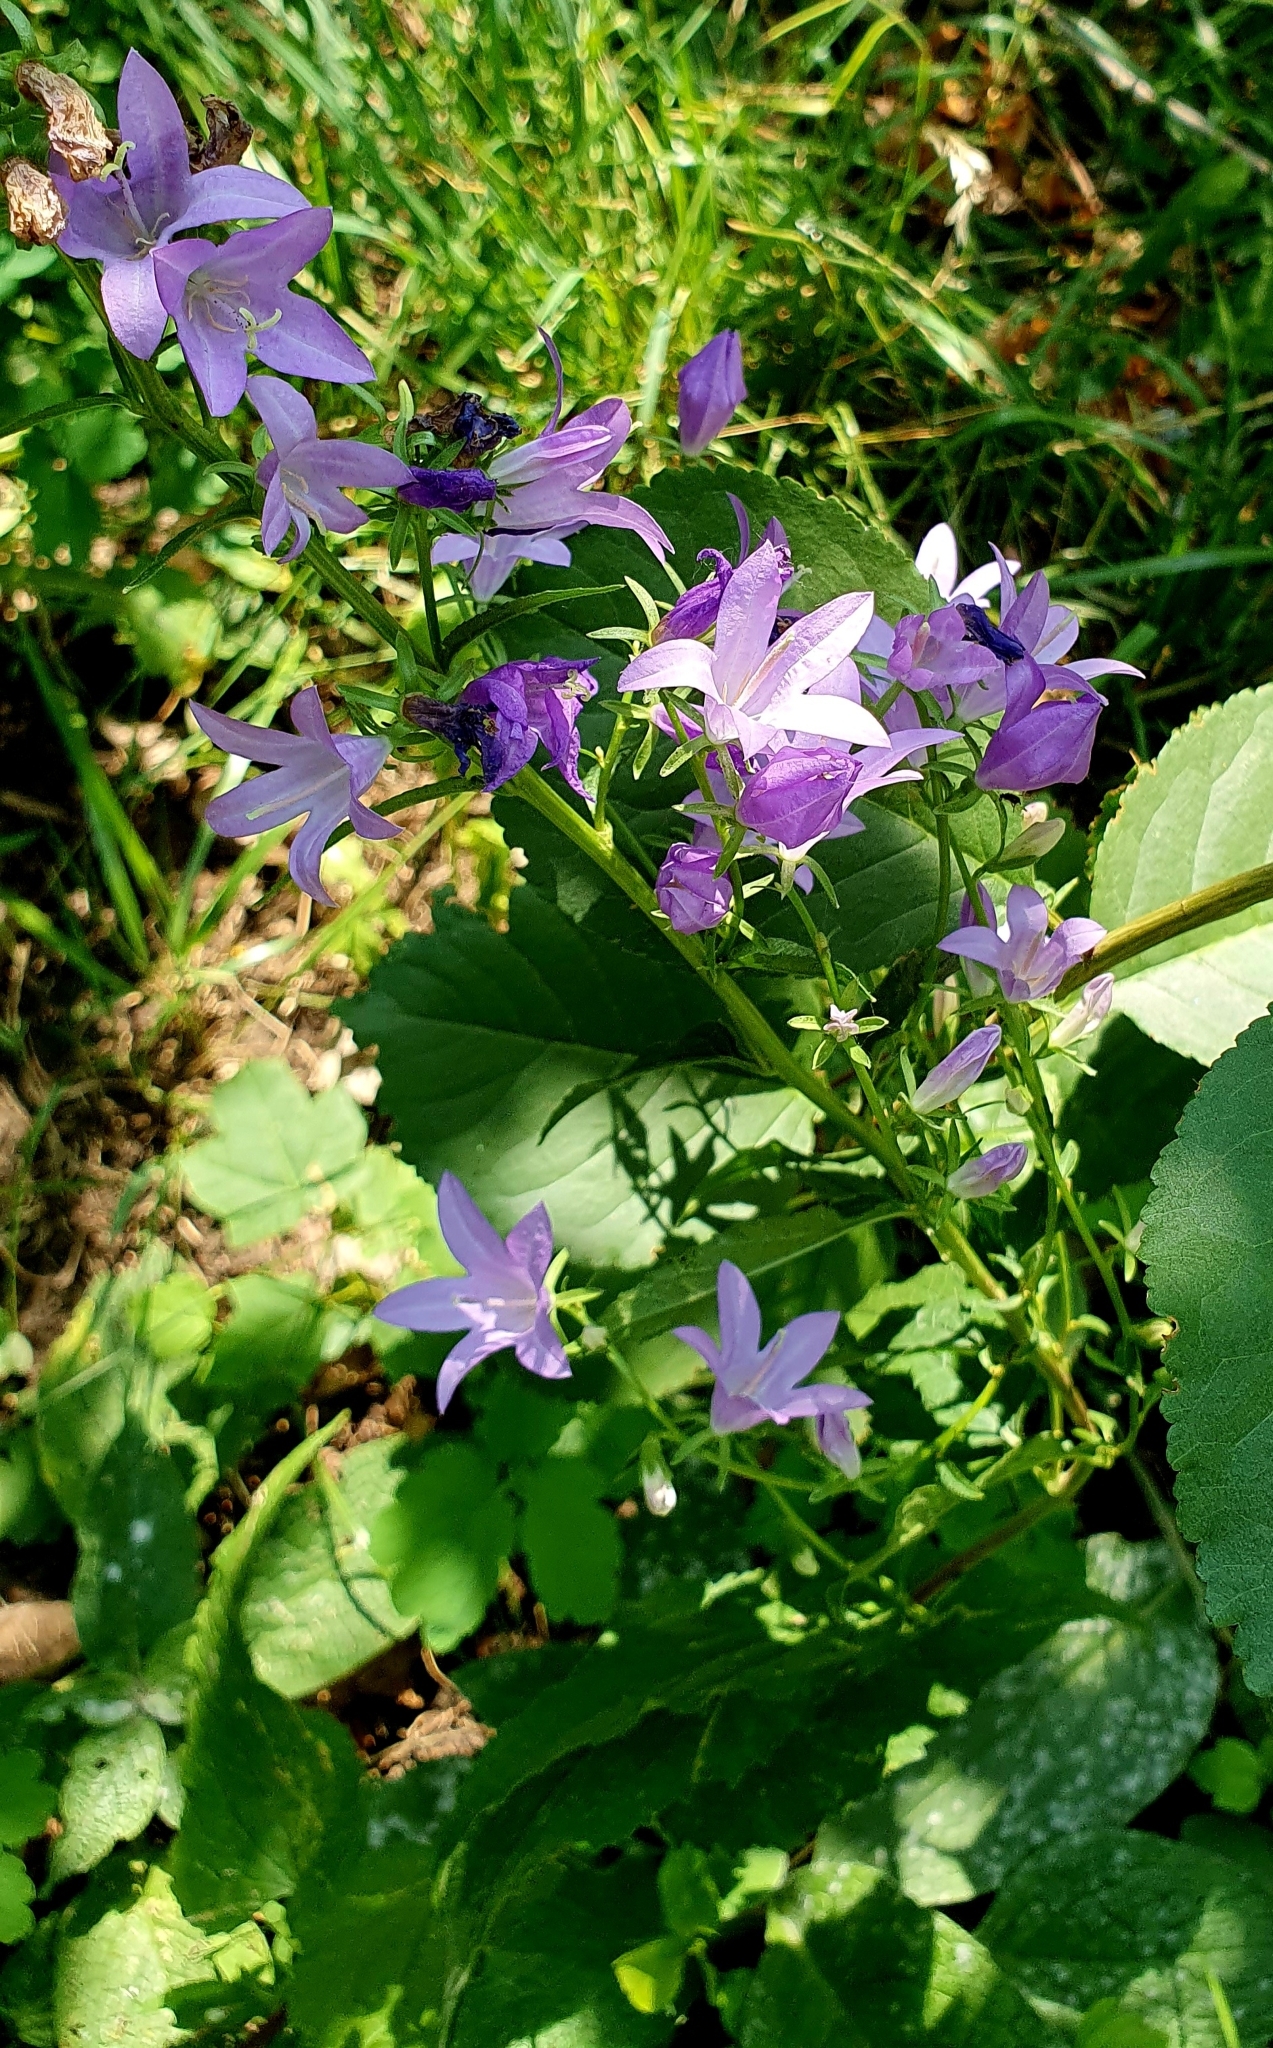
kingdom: Plantae
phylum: Tracheophyta
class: Magnoliopsida
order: Asterales
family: Campanulaceae
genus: Campanula
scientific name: Campanula rapunculoides
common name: Creeping bellflower
